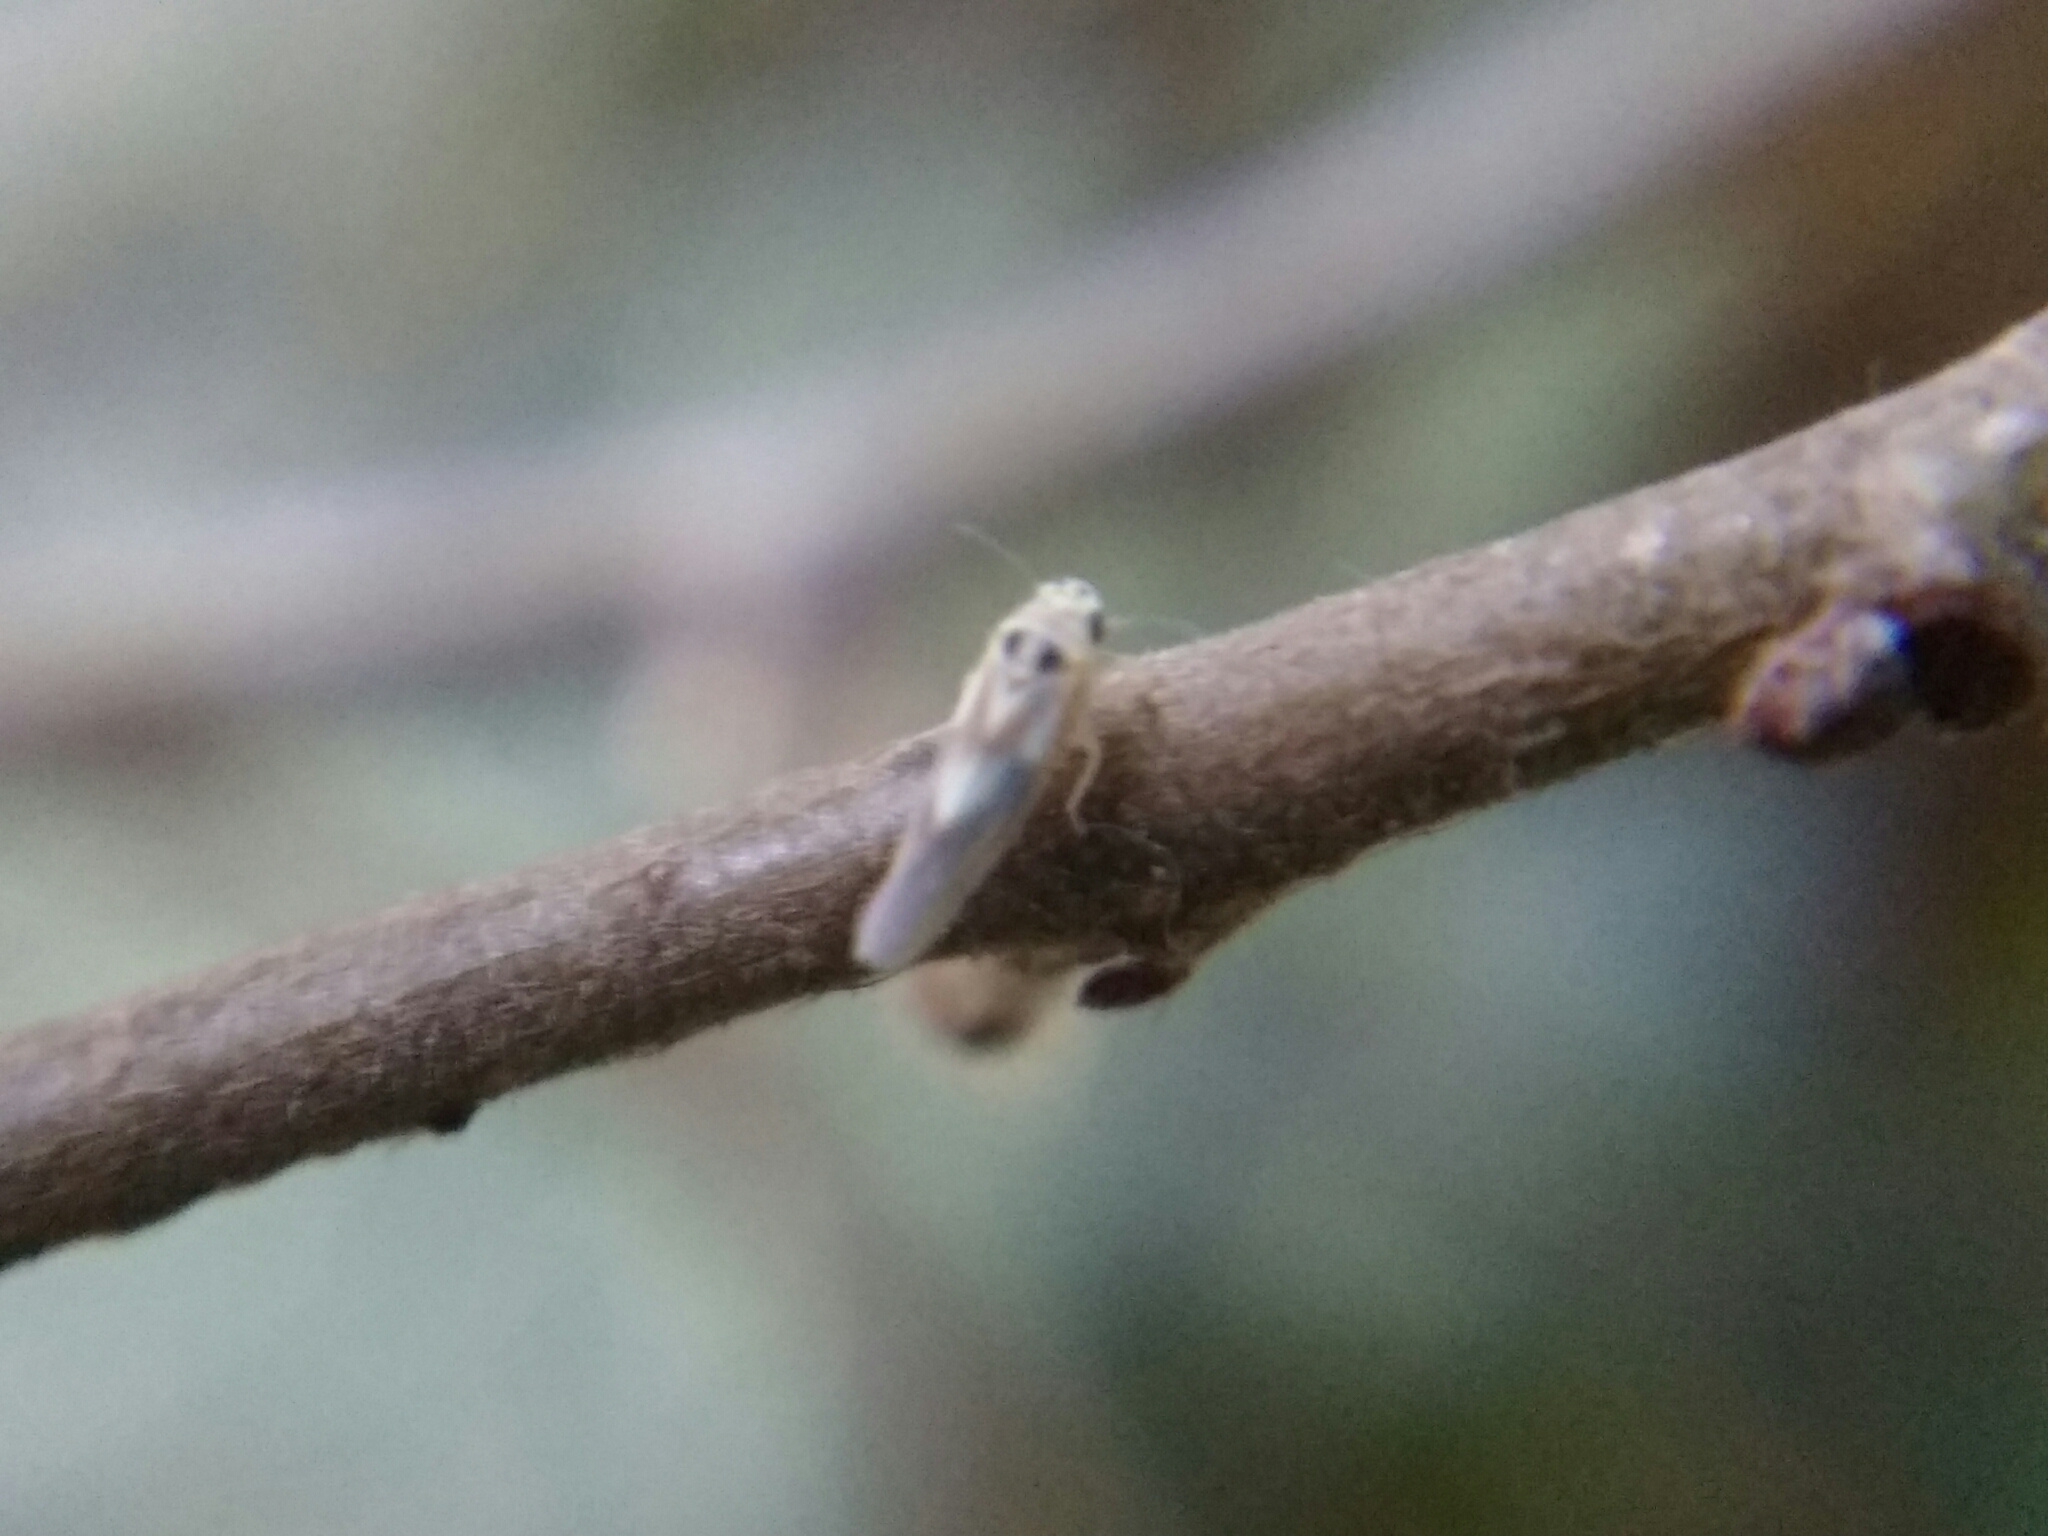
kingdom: Animalia
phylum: Arthropoda
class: Insecta
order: Hemiptera
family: Cicadellidae
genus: Arboridia
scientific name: Arboridia
